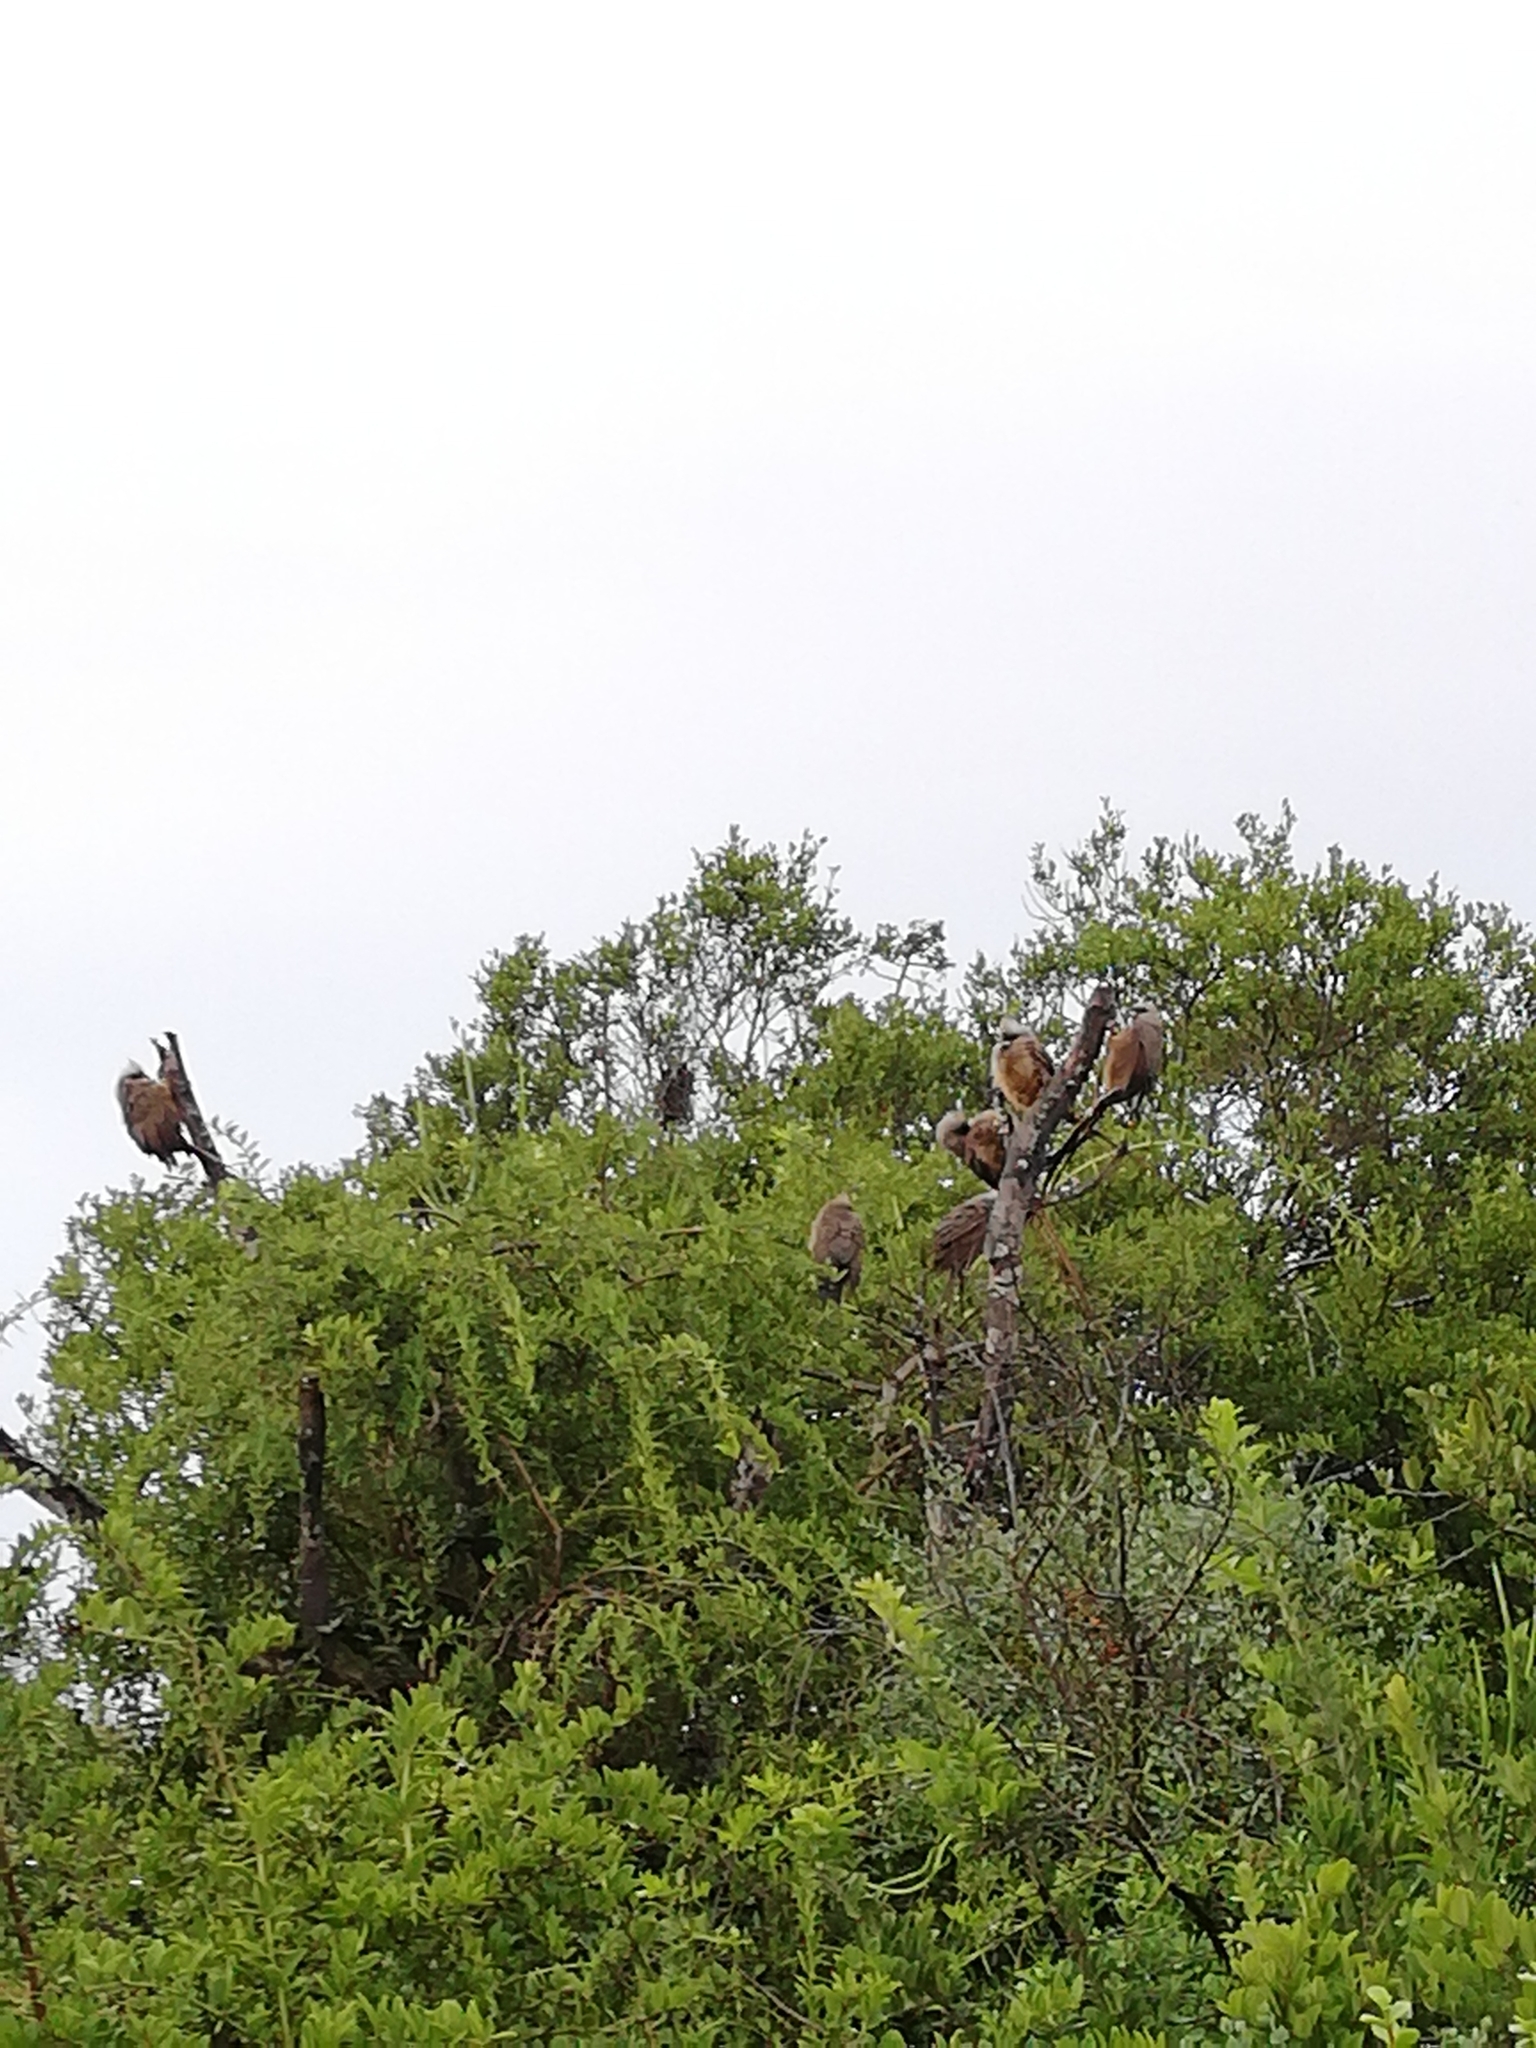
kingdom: Animalia
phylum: Chordata
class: Aves
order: Coliiformes
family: Coliidae
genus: Colius
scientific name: Colius striatus
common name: Speckled mousebird
